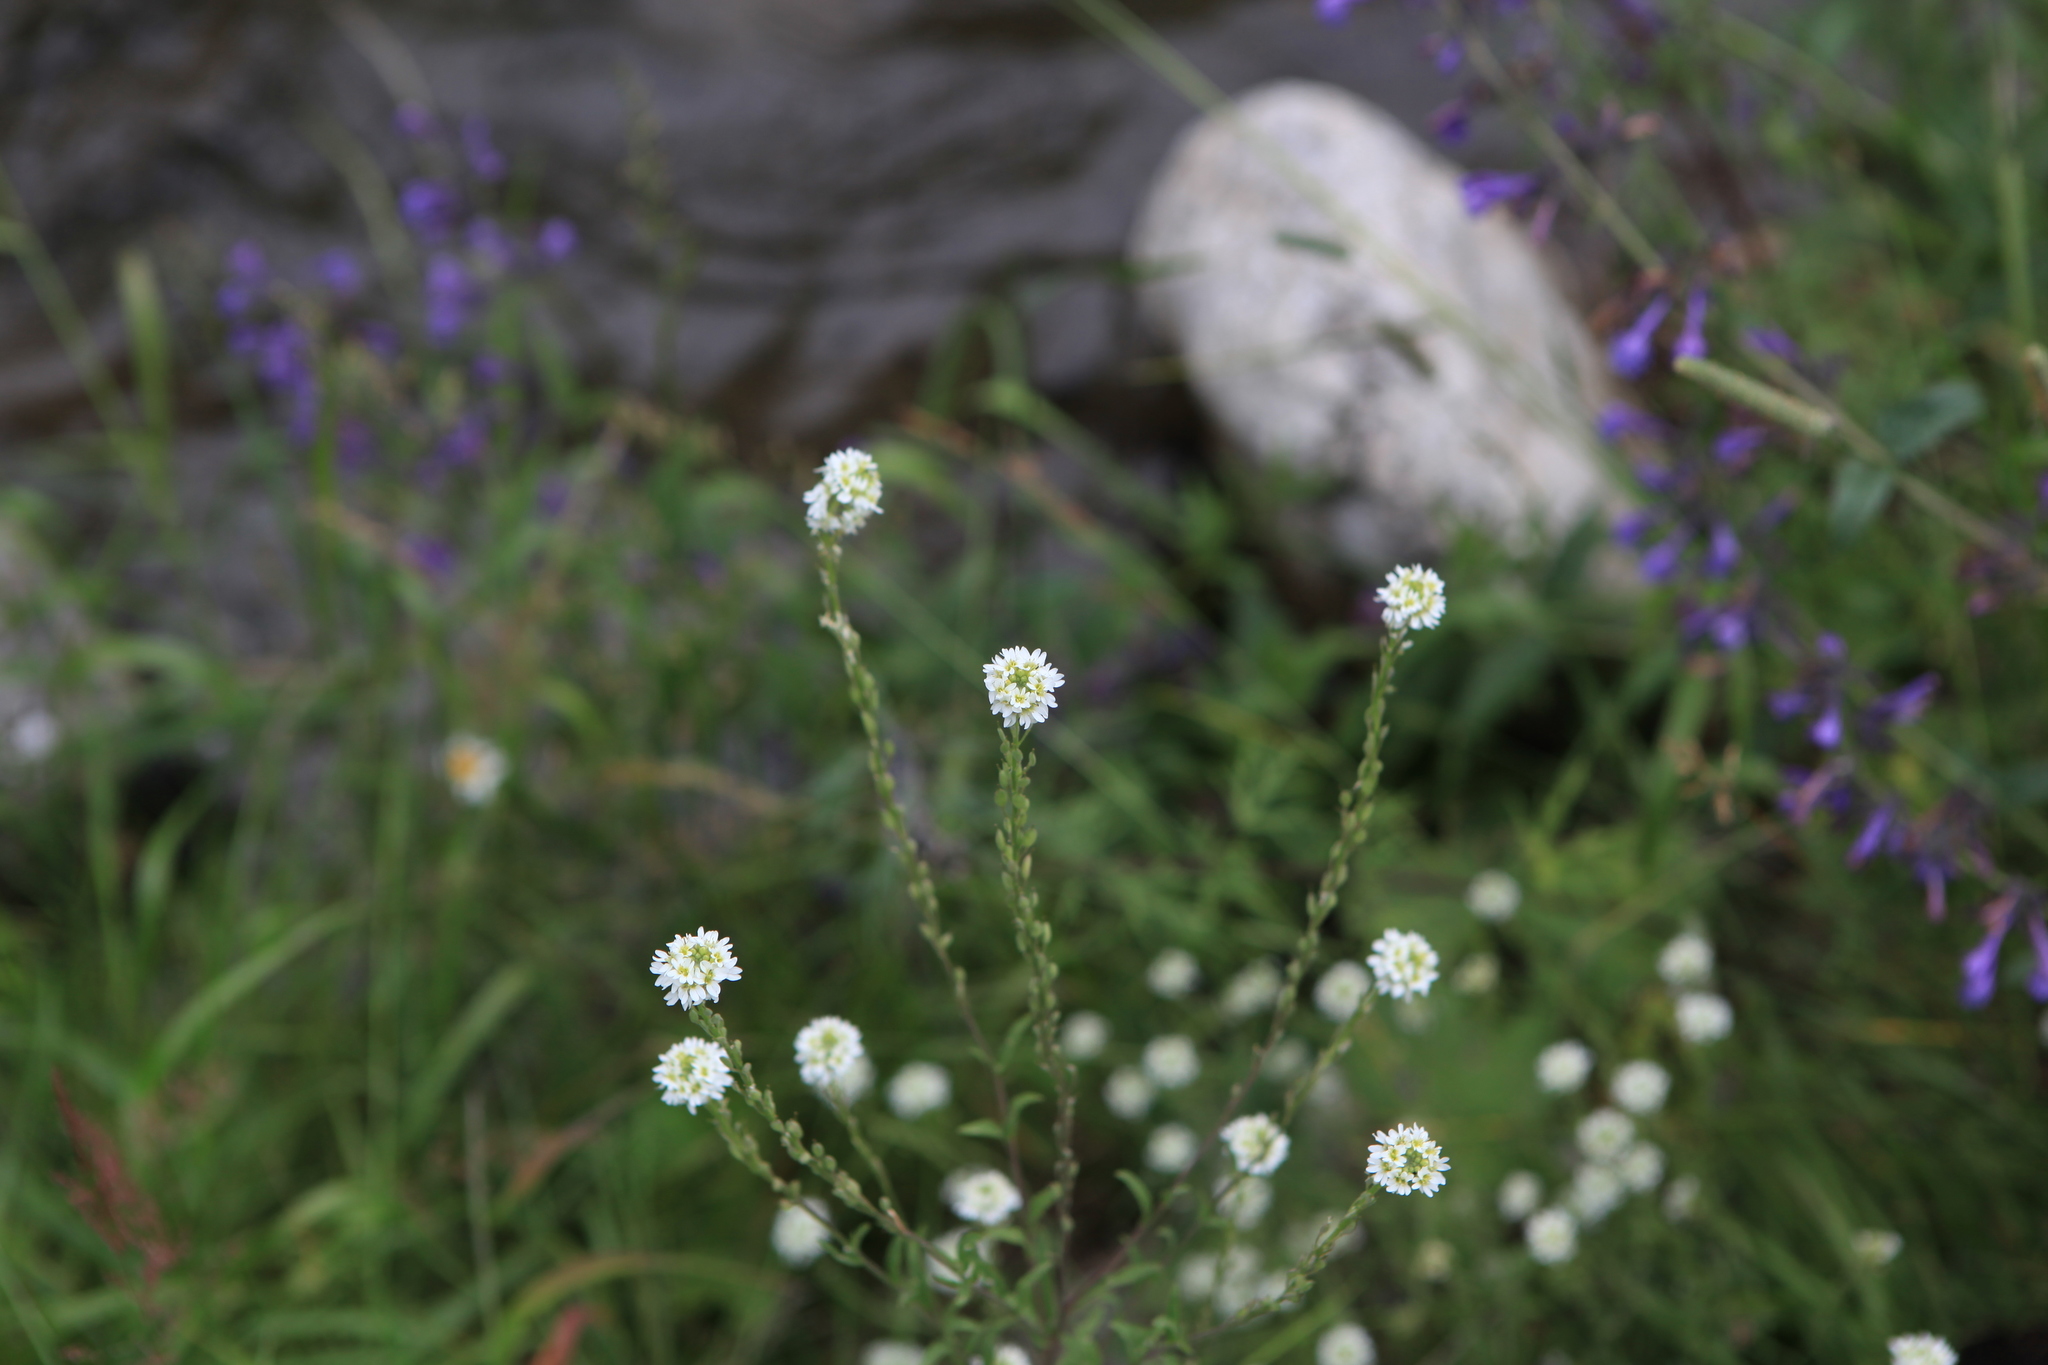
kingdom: Plantae
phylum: Tracheophyta
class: Magnoliopsida
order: Brassicales
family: Brassicaceae
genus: Berteroa
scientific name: Berteroa incana
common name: Hoary alison
